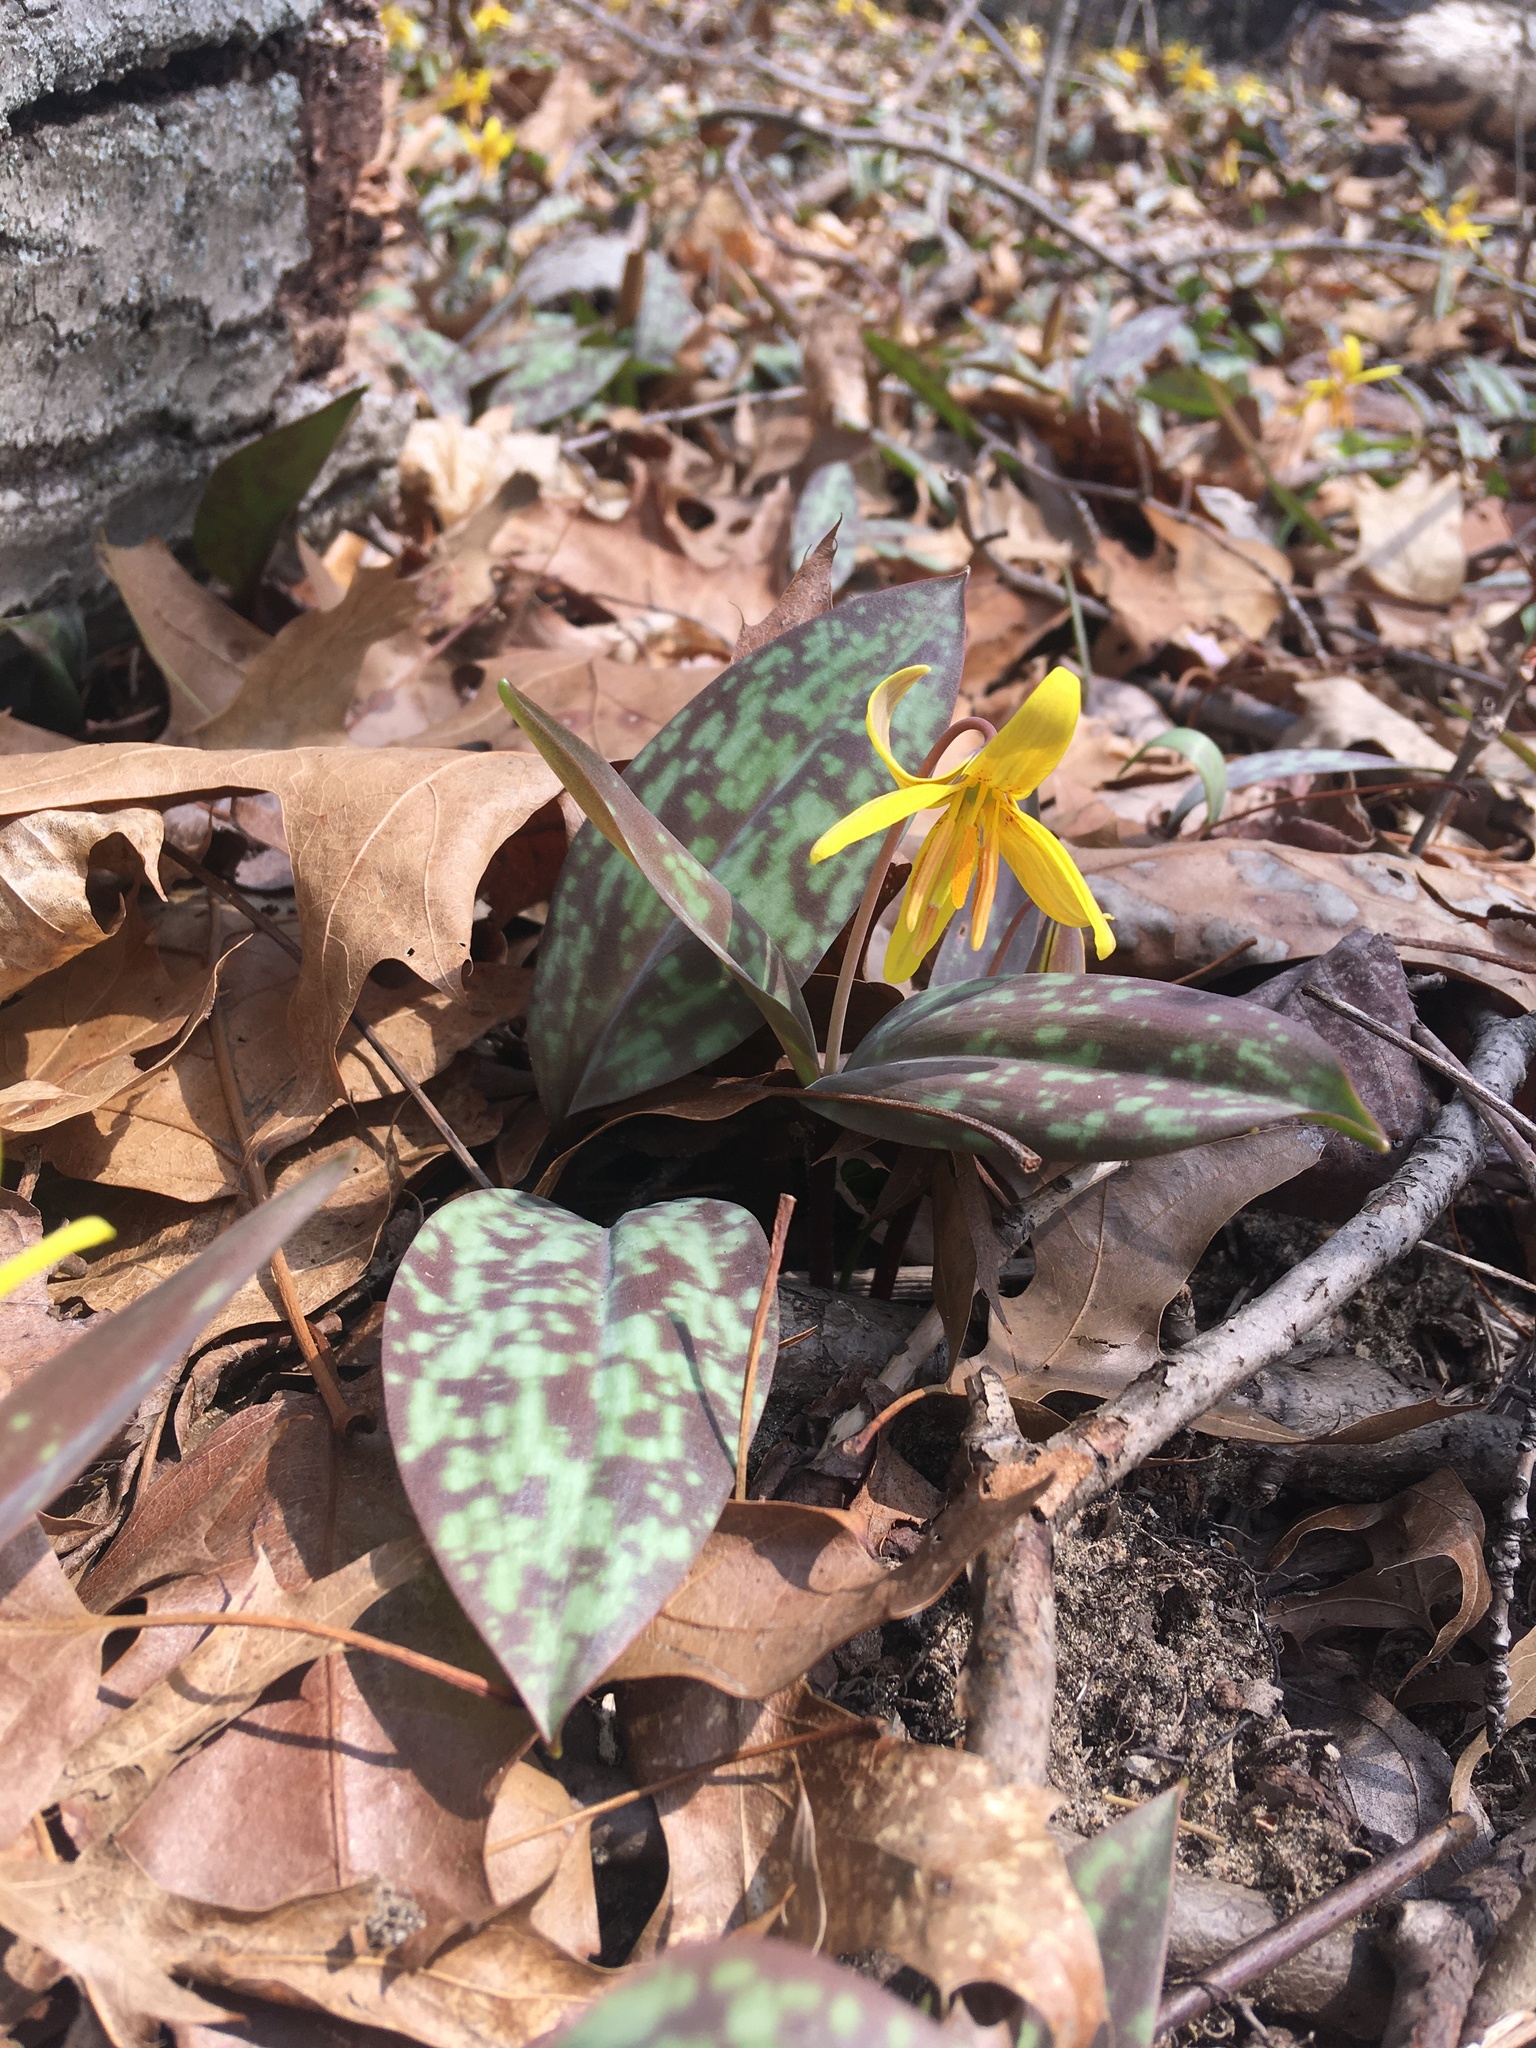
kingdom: Plantae
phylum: Tracheophyta
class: Liliopsida
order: Liliales
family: Liliaceae
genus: Erythronium
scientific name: Erythronium americanum
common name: Yellow adder's-tongue
